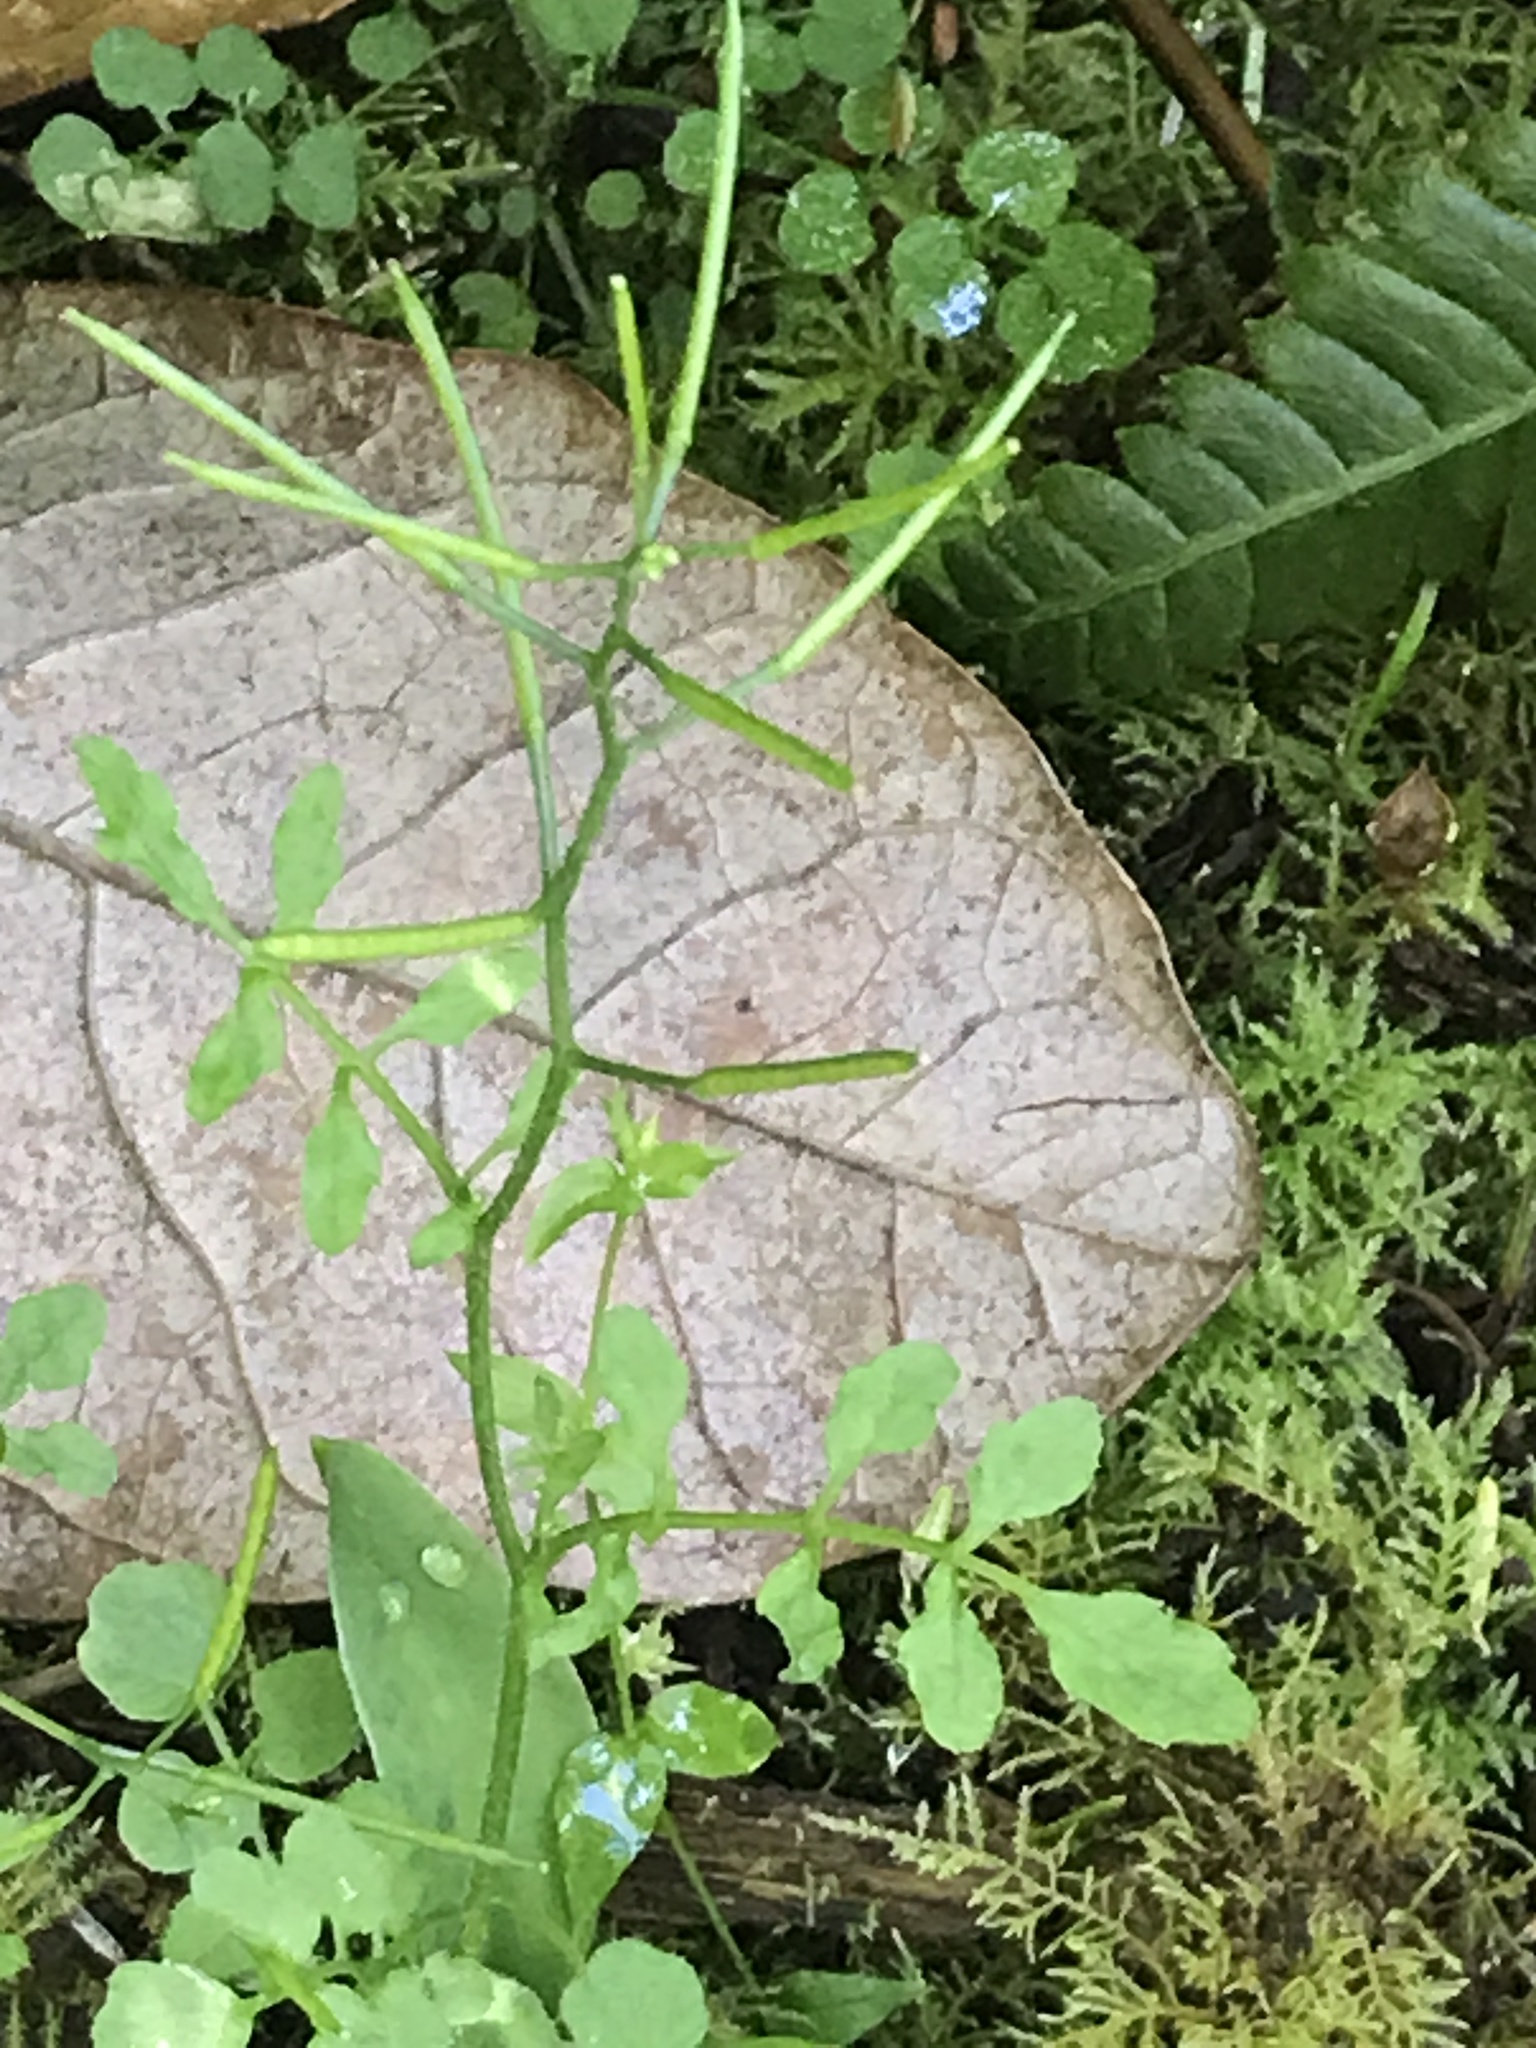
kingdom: Plantae
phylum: Tracheophyta
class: Magnoliopsida
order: Brassicales
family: Brassicaceae
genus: Cardamine
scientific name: Cardamine flexuosa
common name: Woodland bittercress
